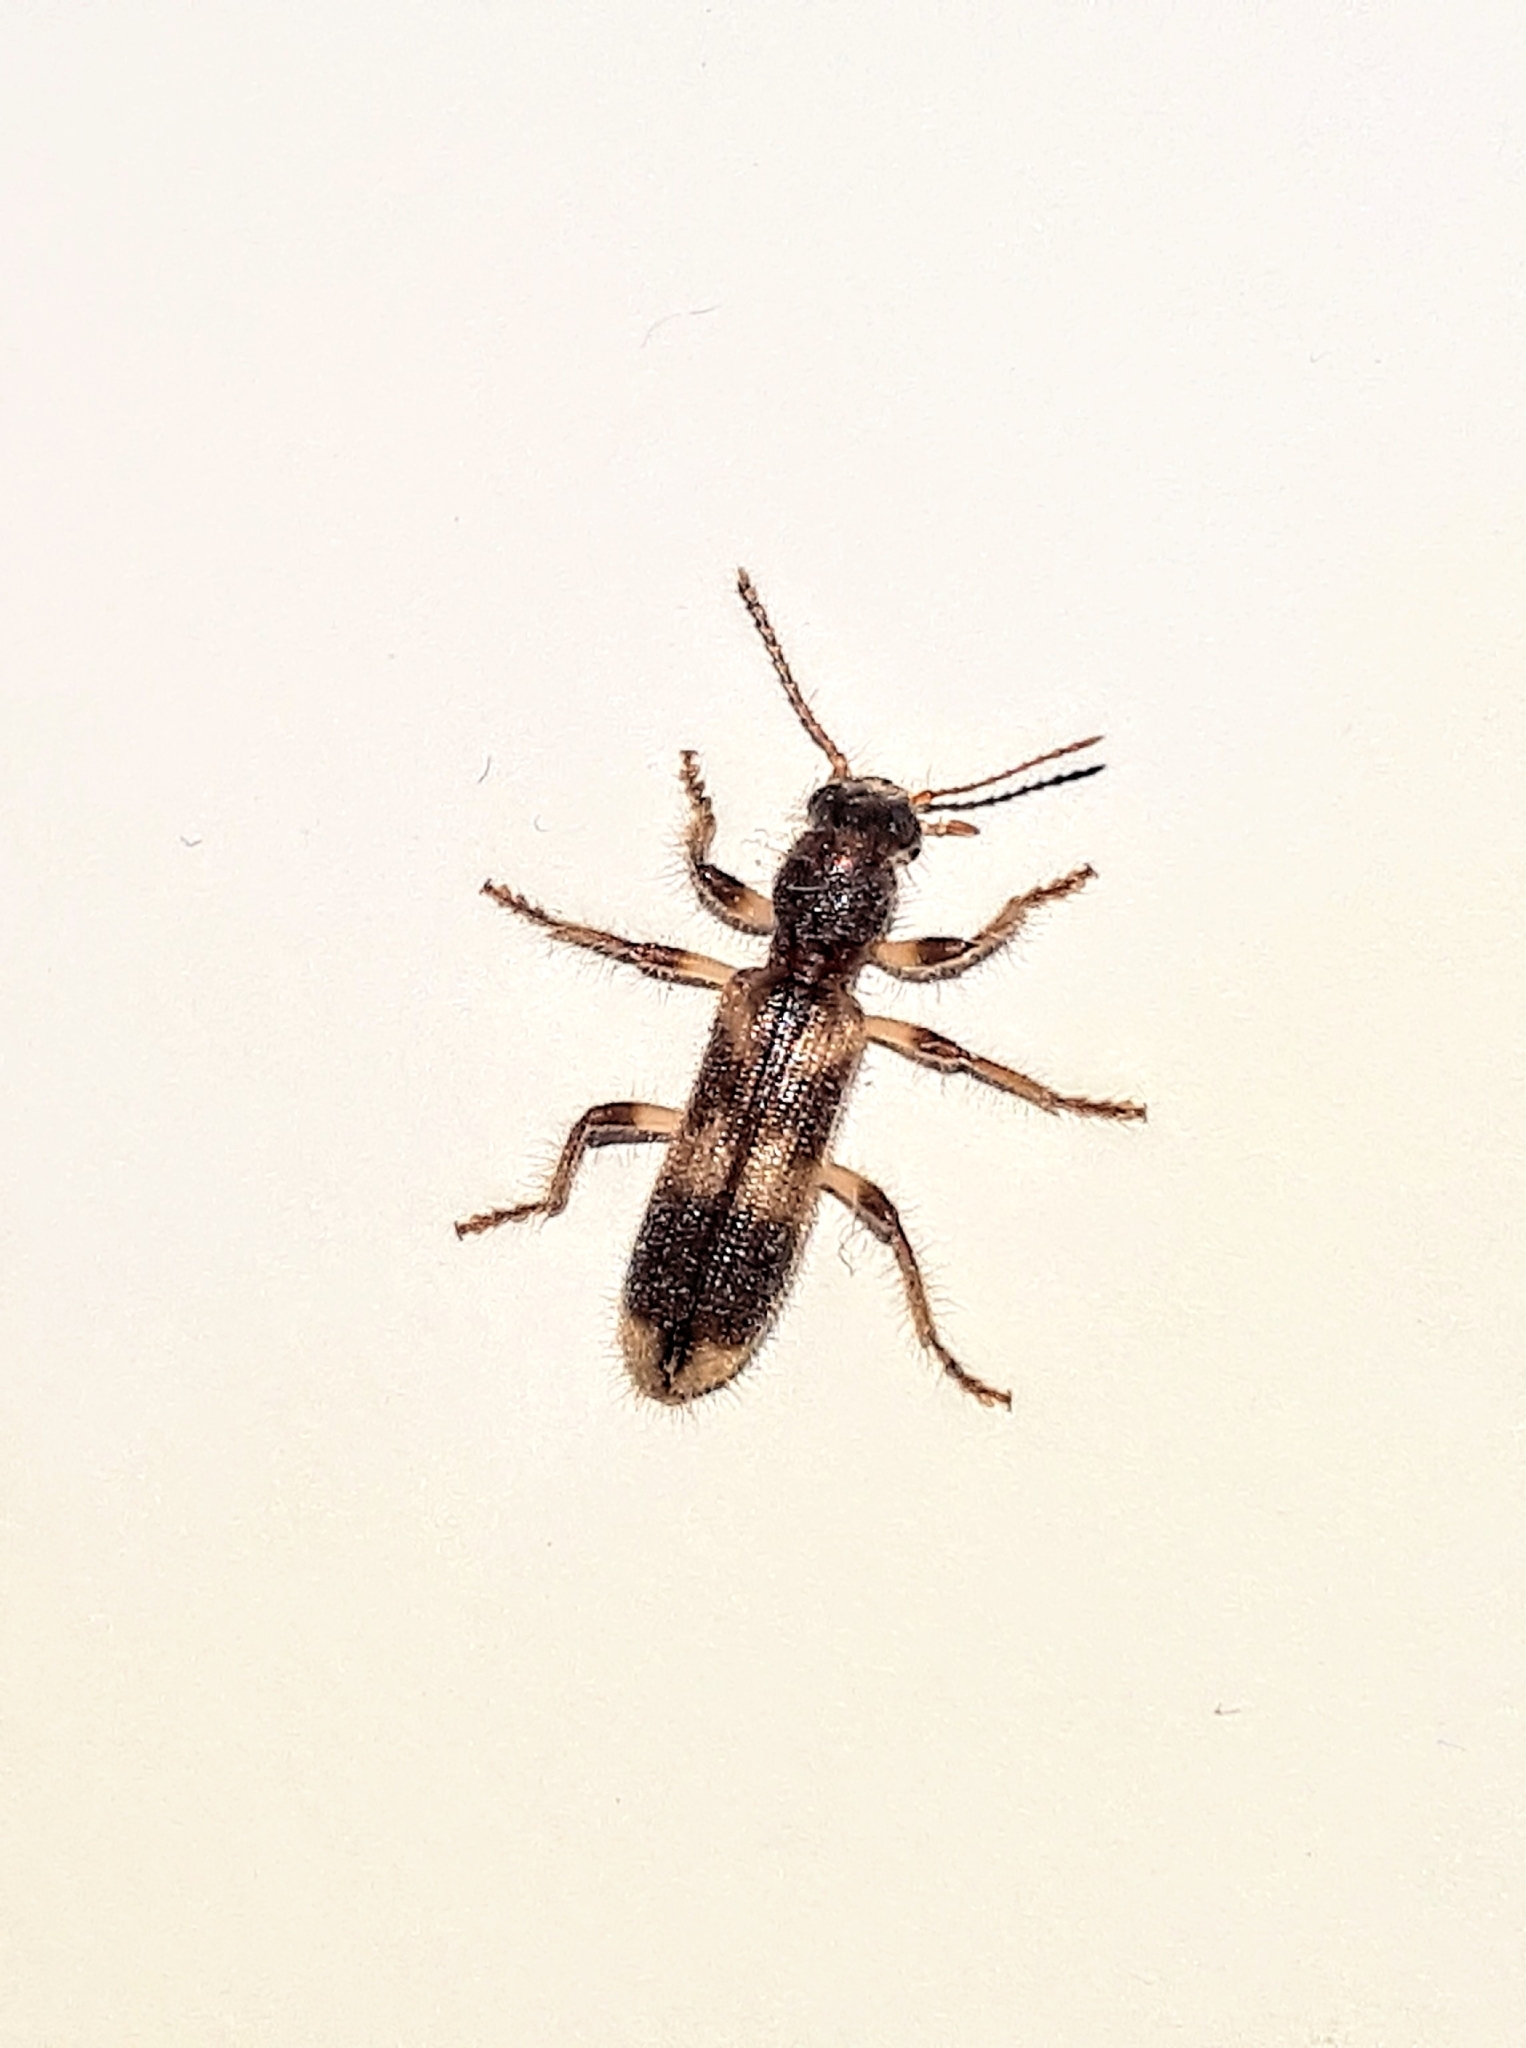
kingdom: Animalia
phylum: Arthropoda
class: Insecta
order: Coleoptera
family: Cleridae
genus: Opilo
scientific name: Opilo mollis
